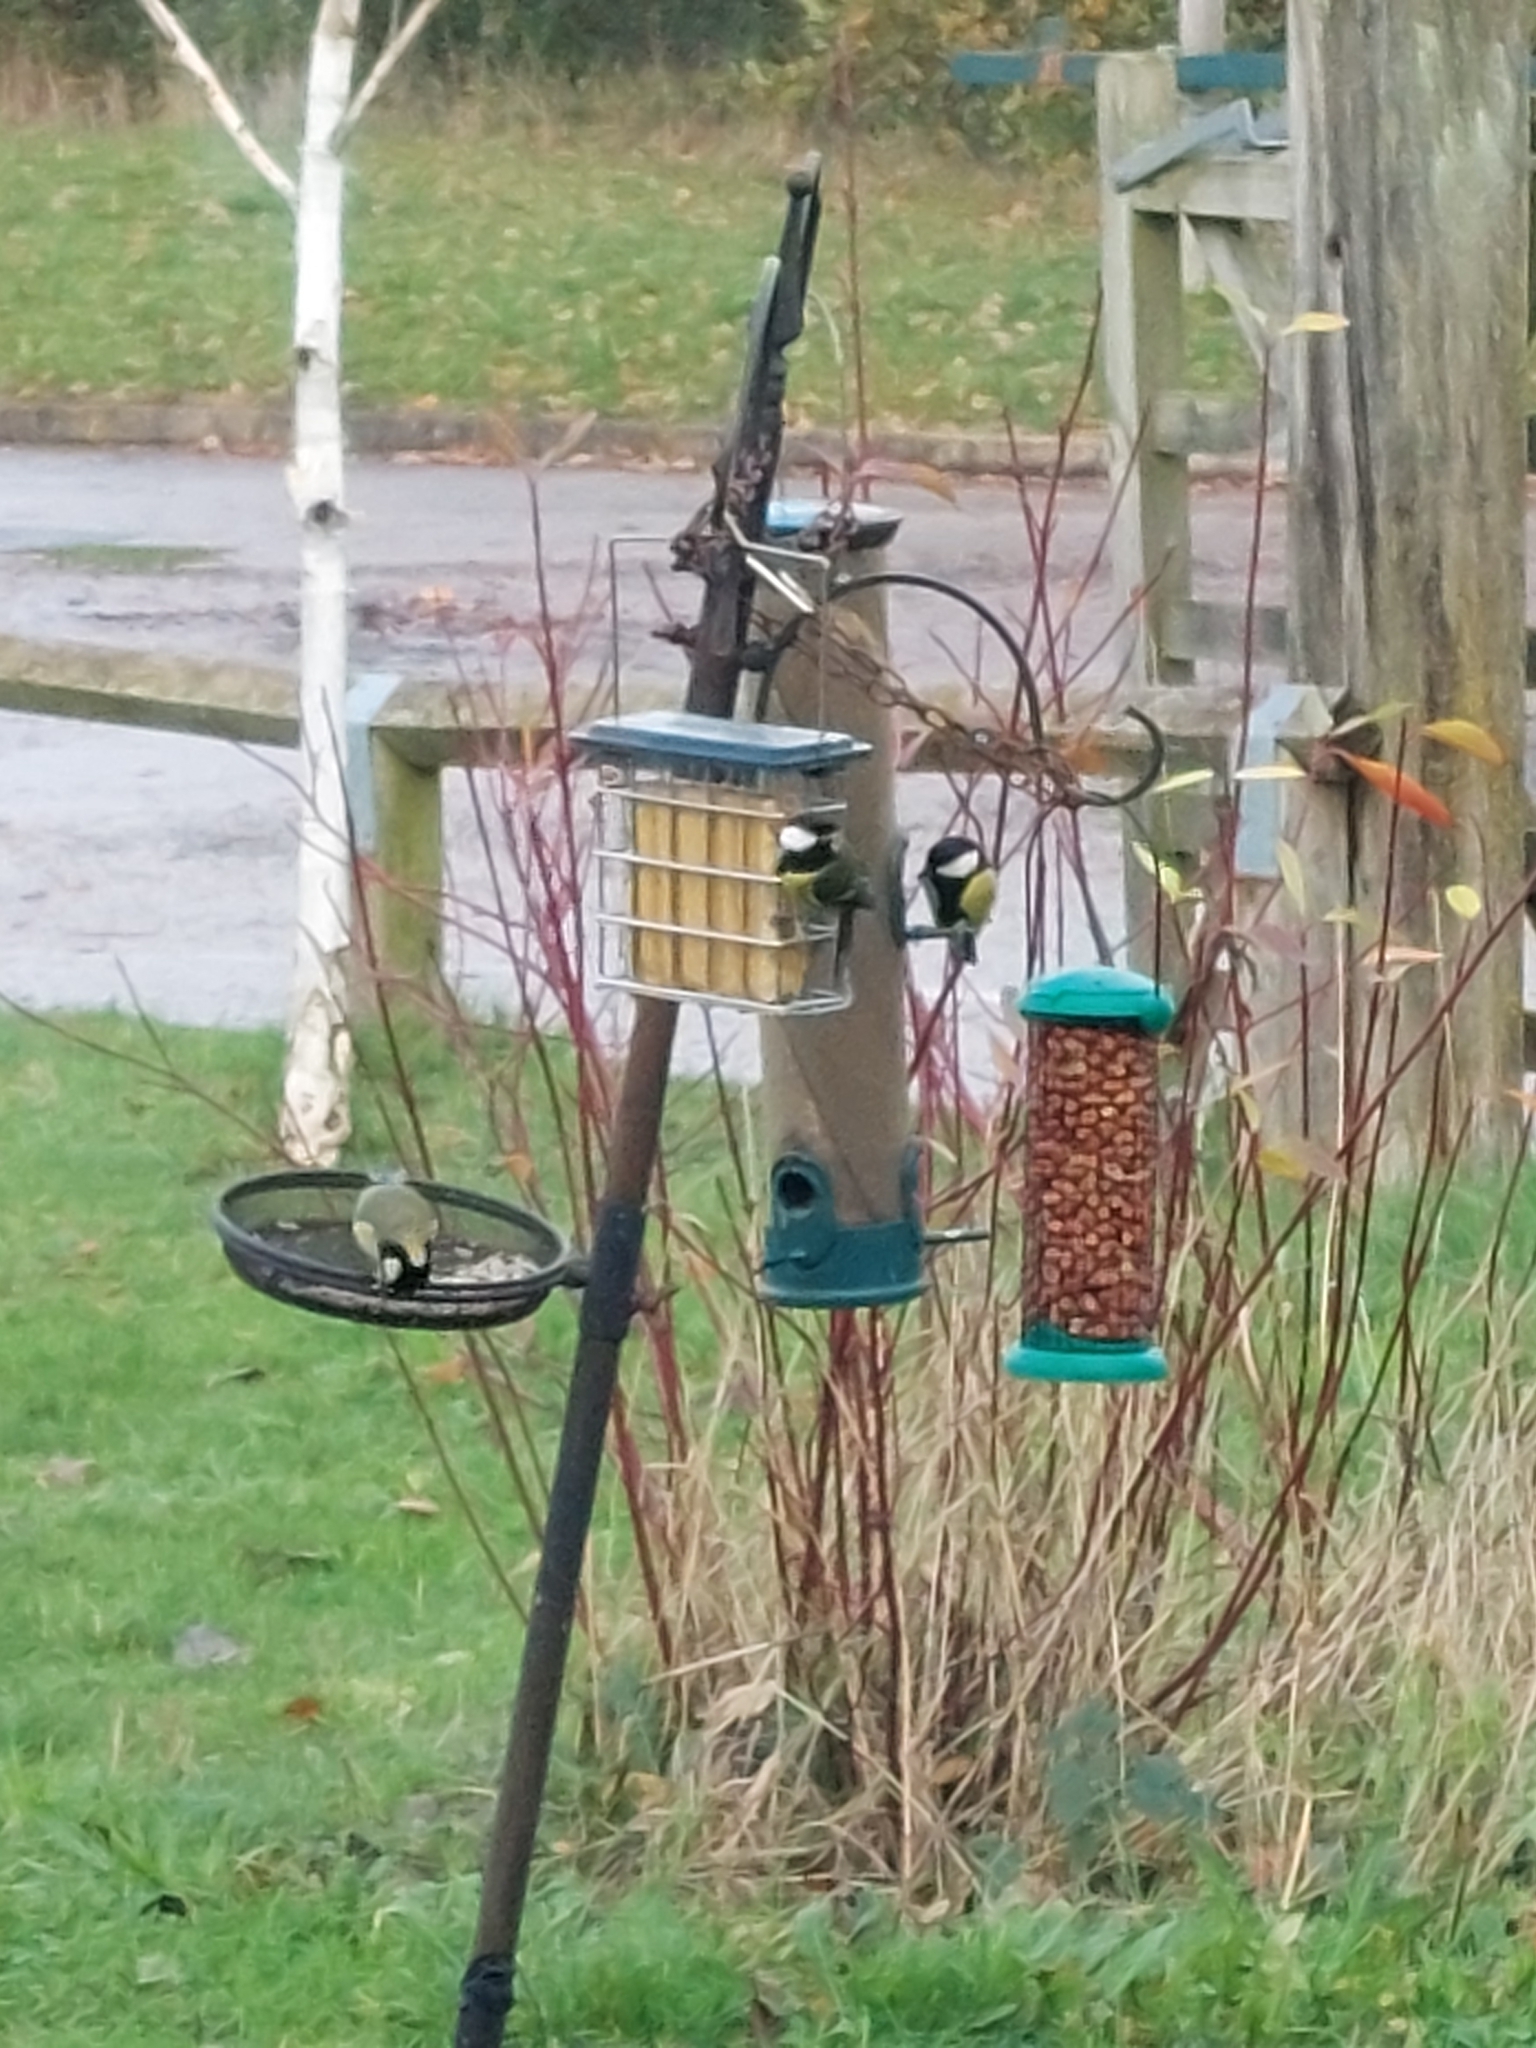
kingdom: Animalia
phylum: Chordata
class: Aves
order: Passeriformes
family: Paridae
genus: Parus
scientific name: Parus major
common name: Great tit
